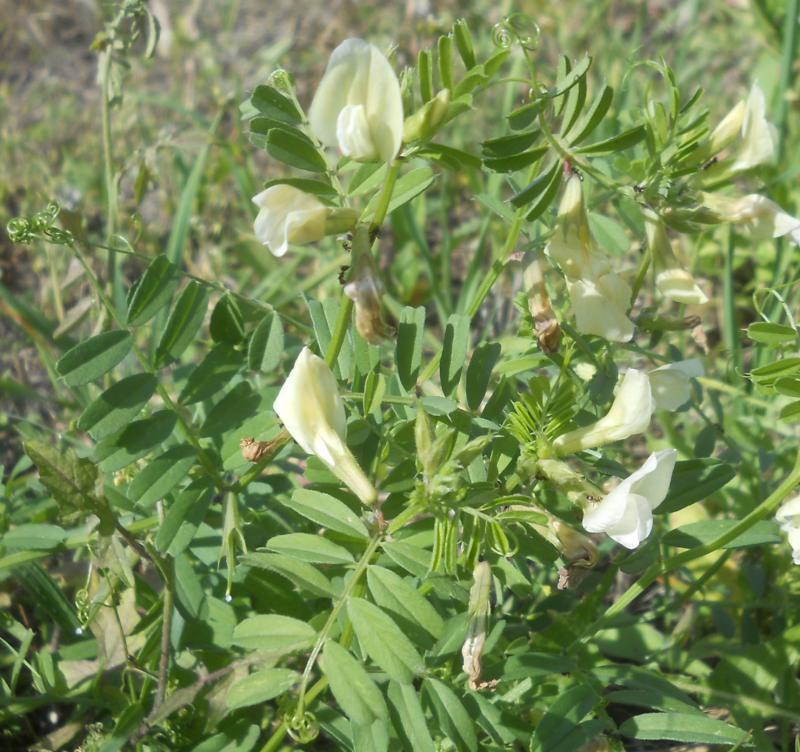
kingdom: Plantae
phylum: Tracheophyta
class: Magnoliopsida
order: Fabales
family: Fabaceae
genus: Vicia
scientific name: Vicia grandiflora
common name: Large yellow vetch
